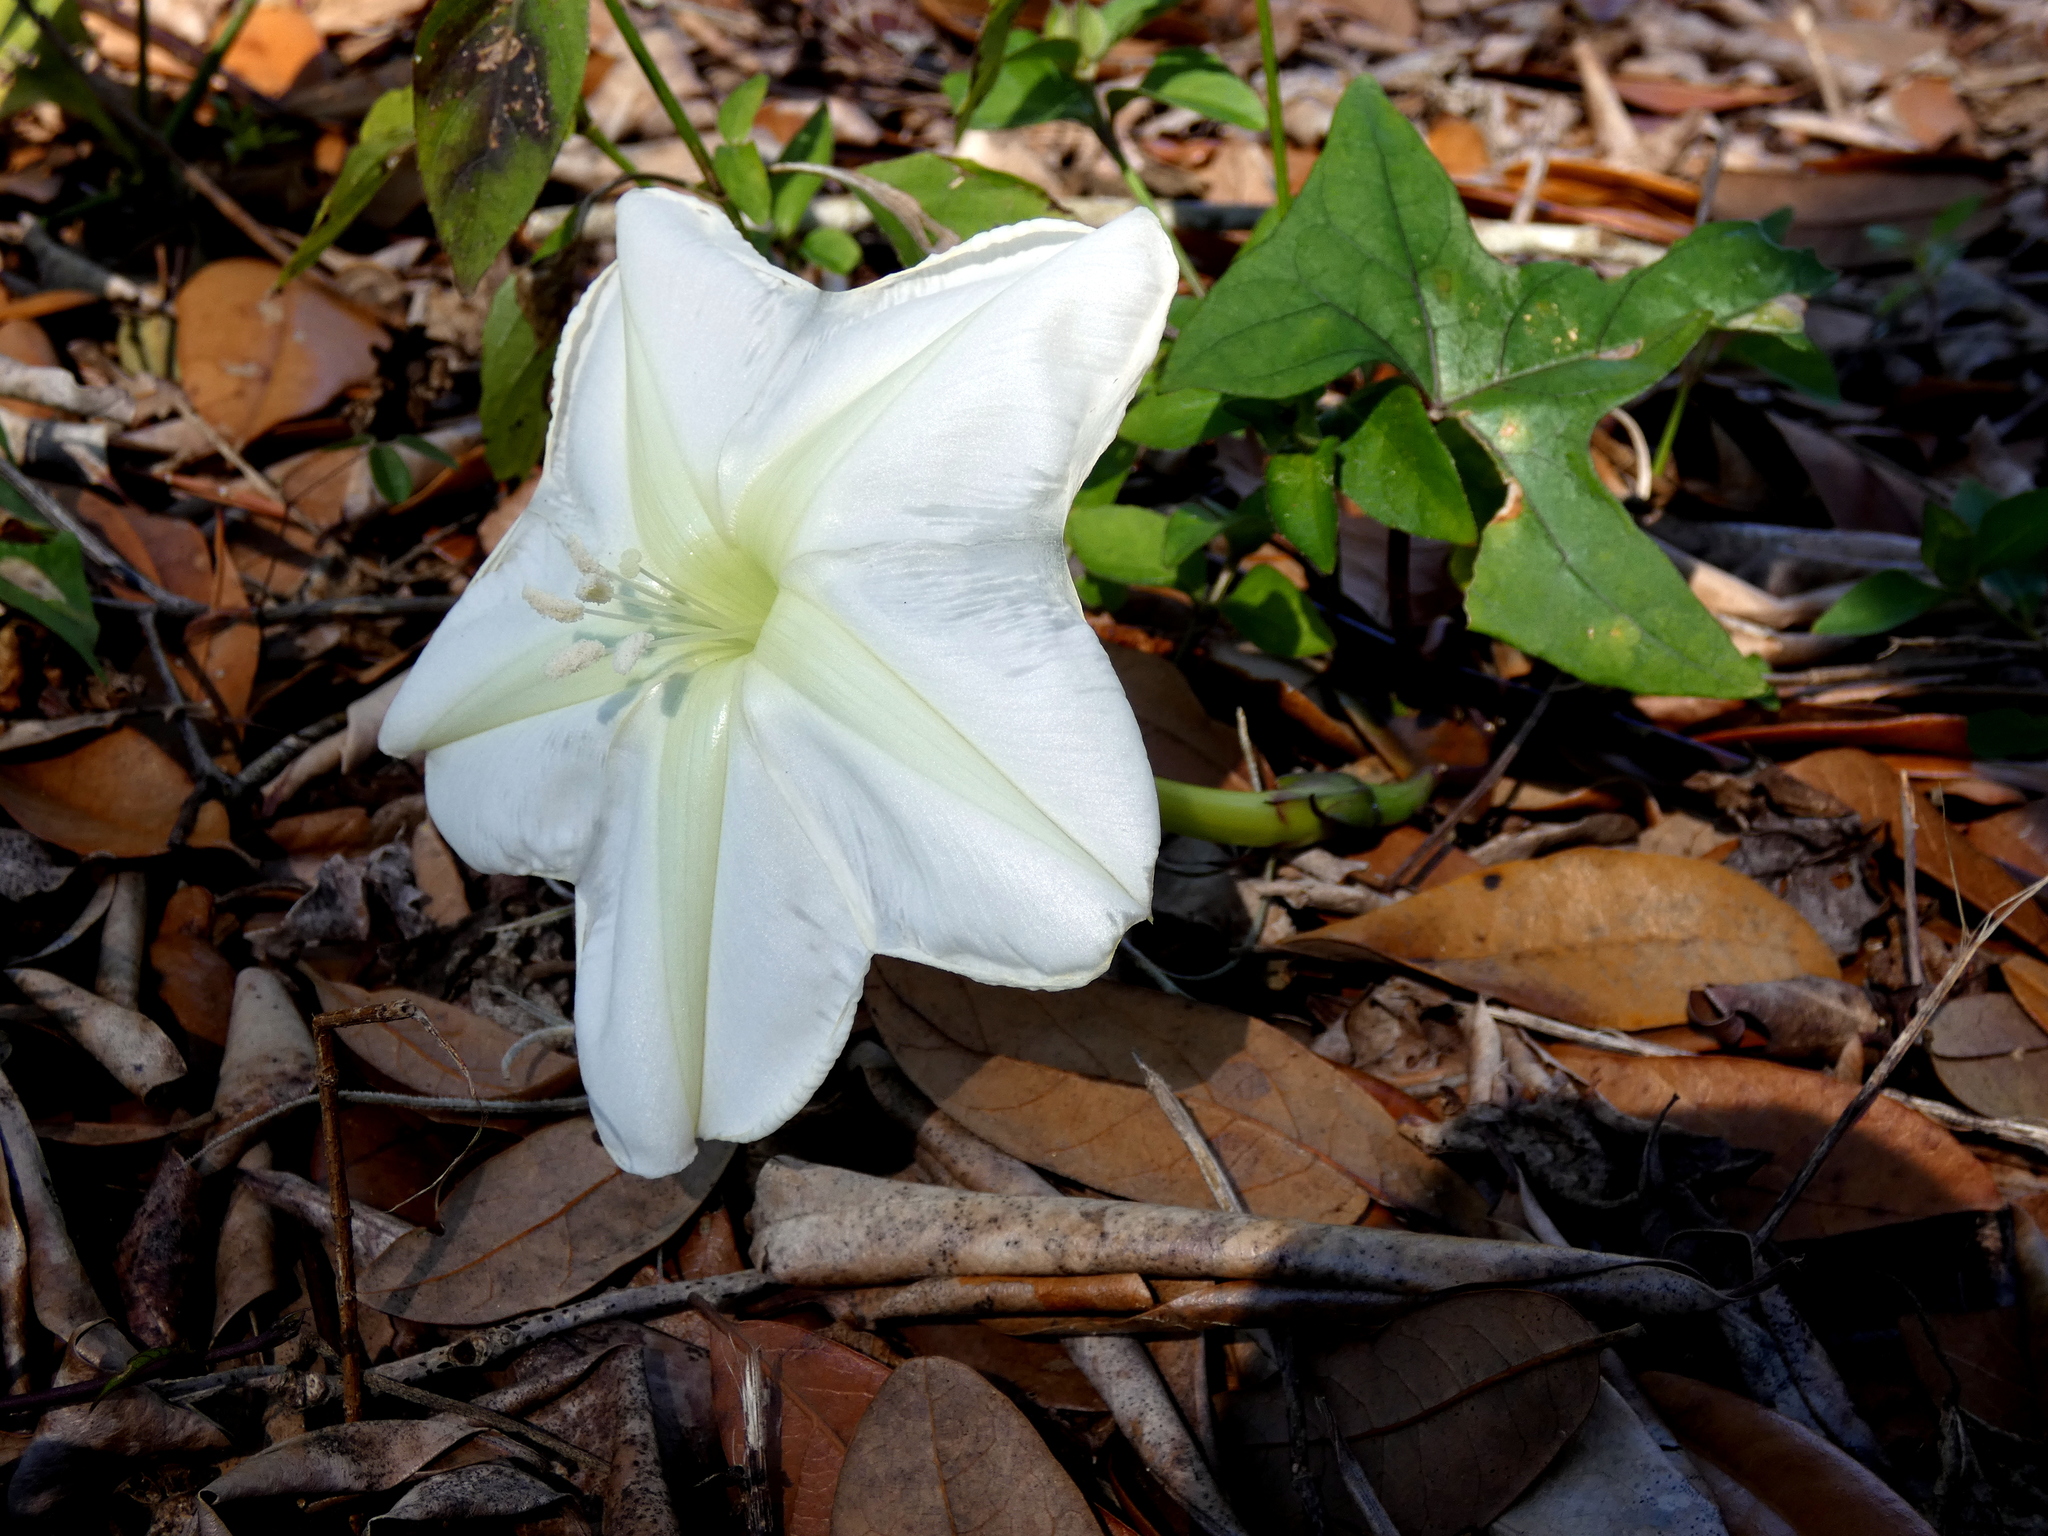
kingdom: Plantae
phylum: Tracheophyta
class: Magnoliopsida
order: Solanales
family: Convolvulaceae
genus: Ipomoea
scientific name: Ipomoea alba
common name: Moonflower
